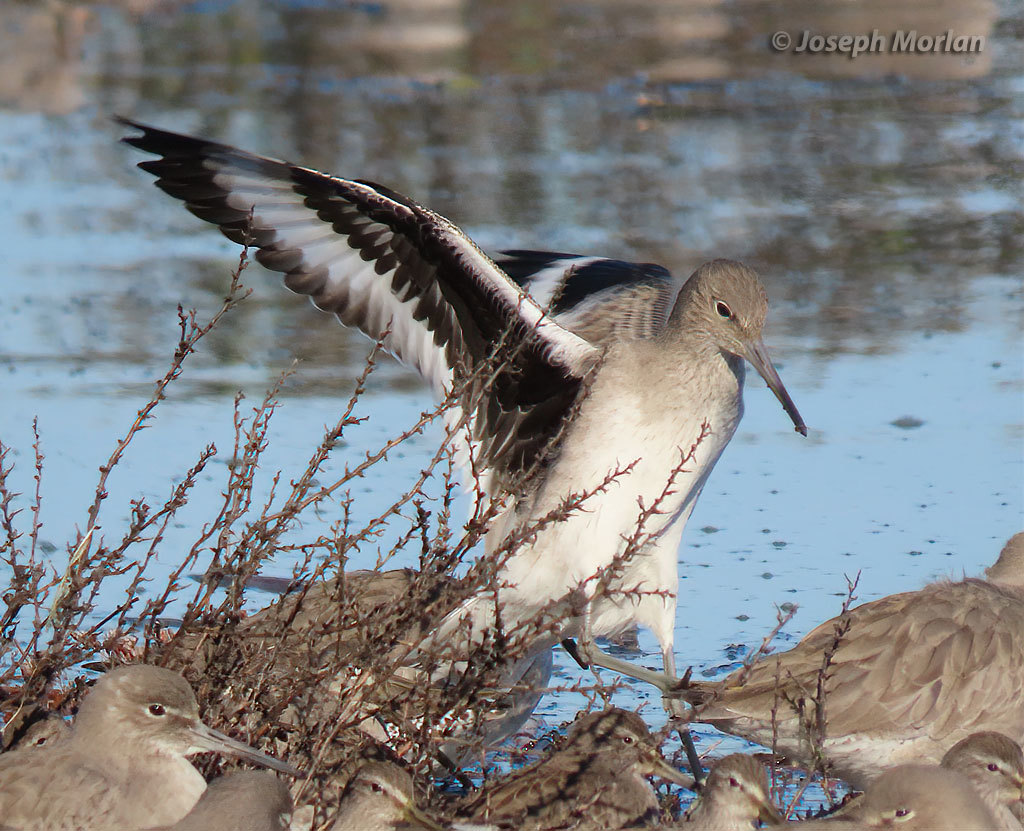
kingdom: Animalia
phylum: Chordata
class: Aves
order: Charadriiformes
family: Scolopacidae
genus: Tringa
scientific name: Tringa semipalmata
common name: Willet
